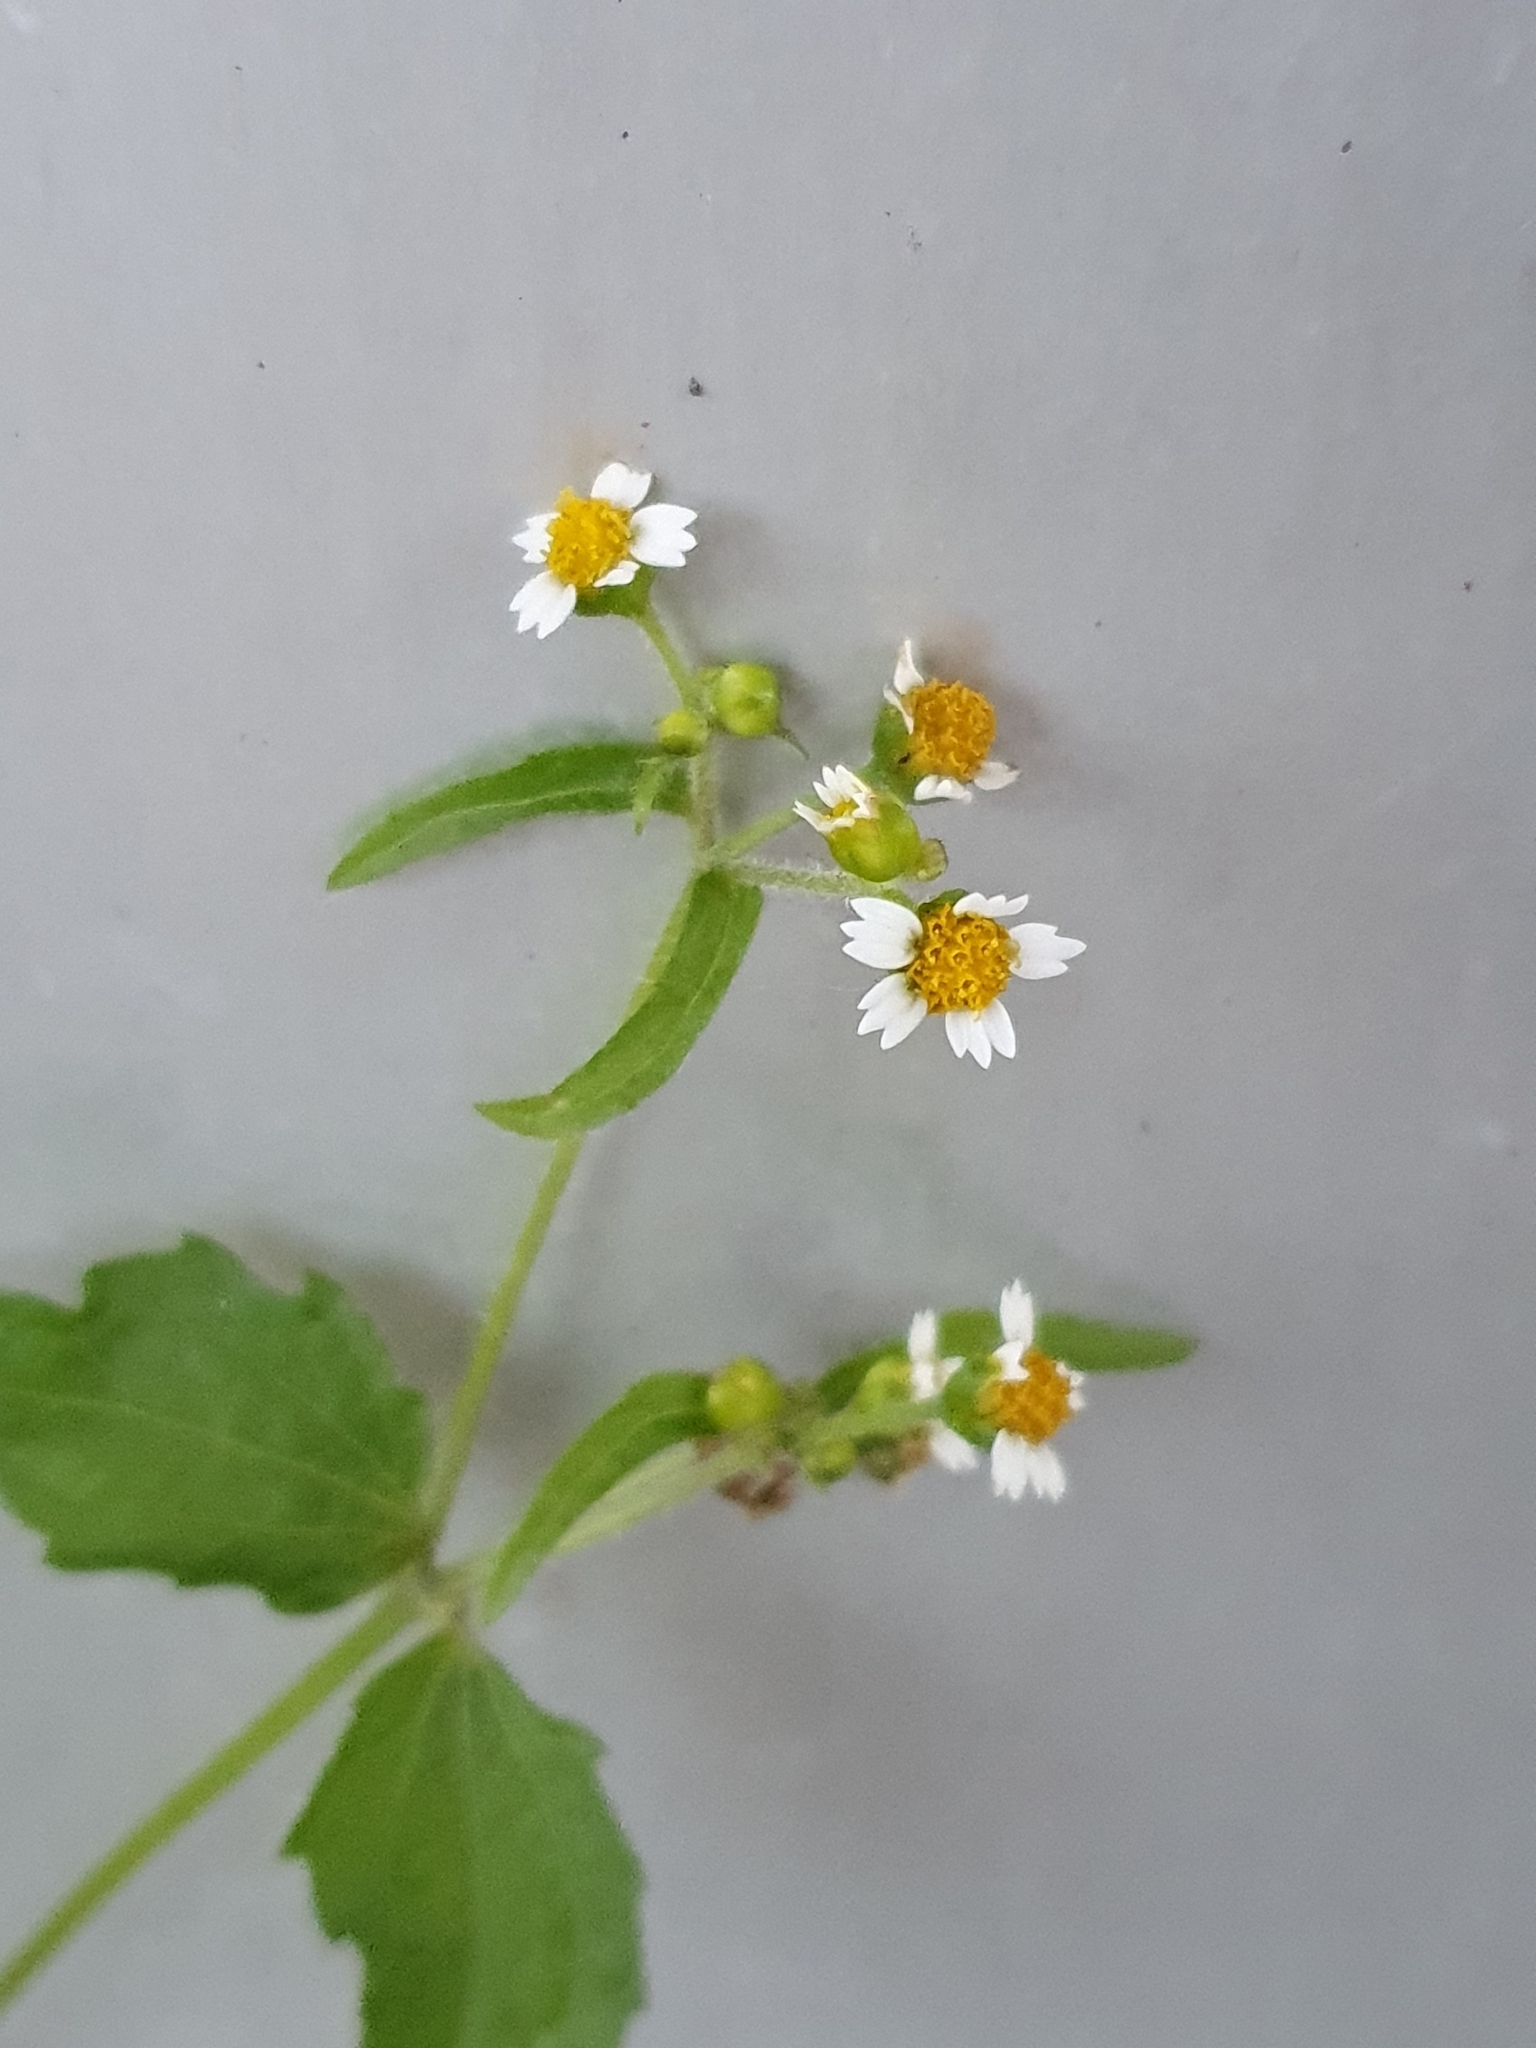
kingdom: Plantae
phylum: Tracheophyta
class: Magnoliopsida
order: Asterales
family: Asteraceae
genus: Galinsoga
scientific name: Galinsoga quadriradiata
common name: Shaggy soldier
